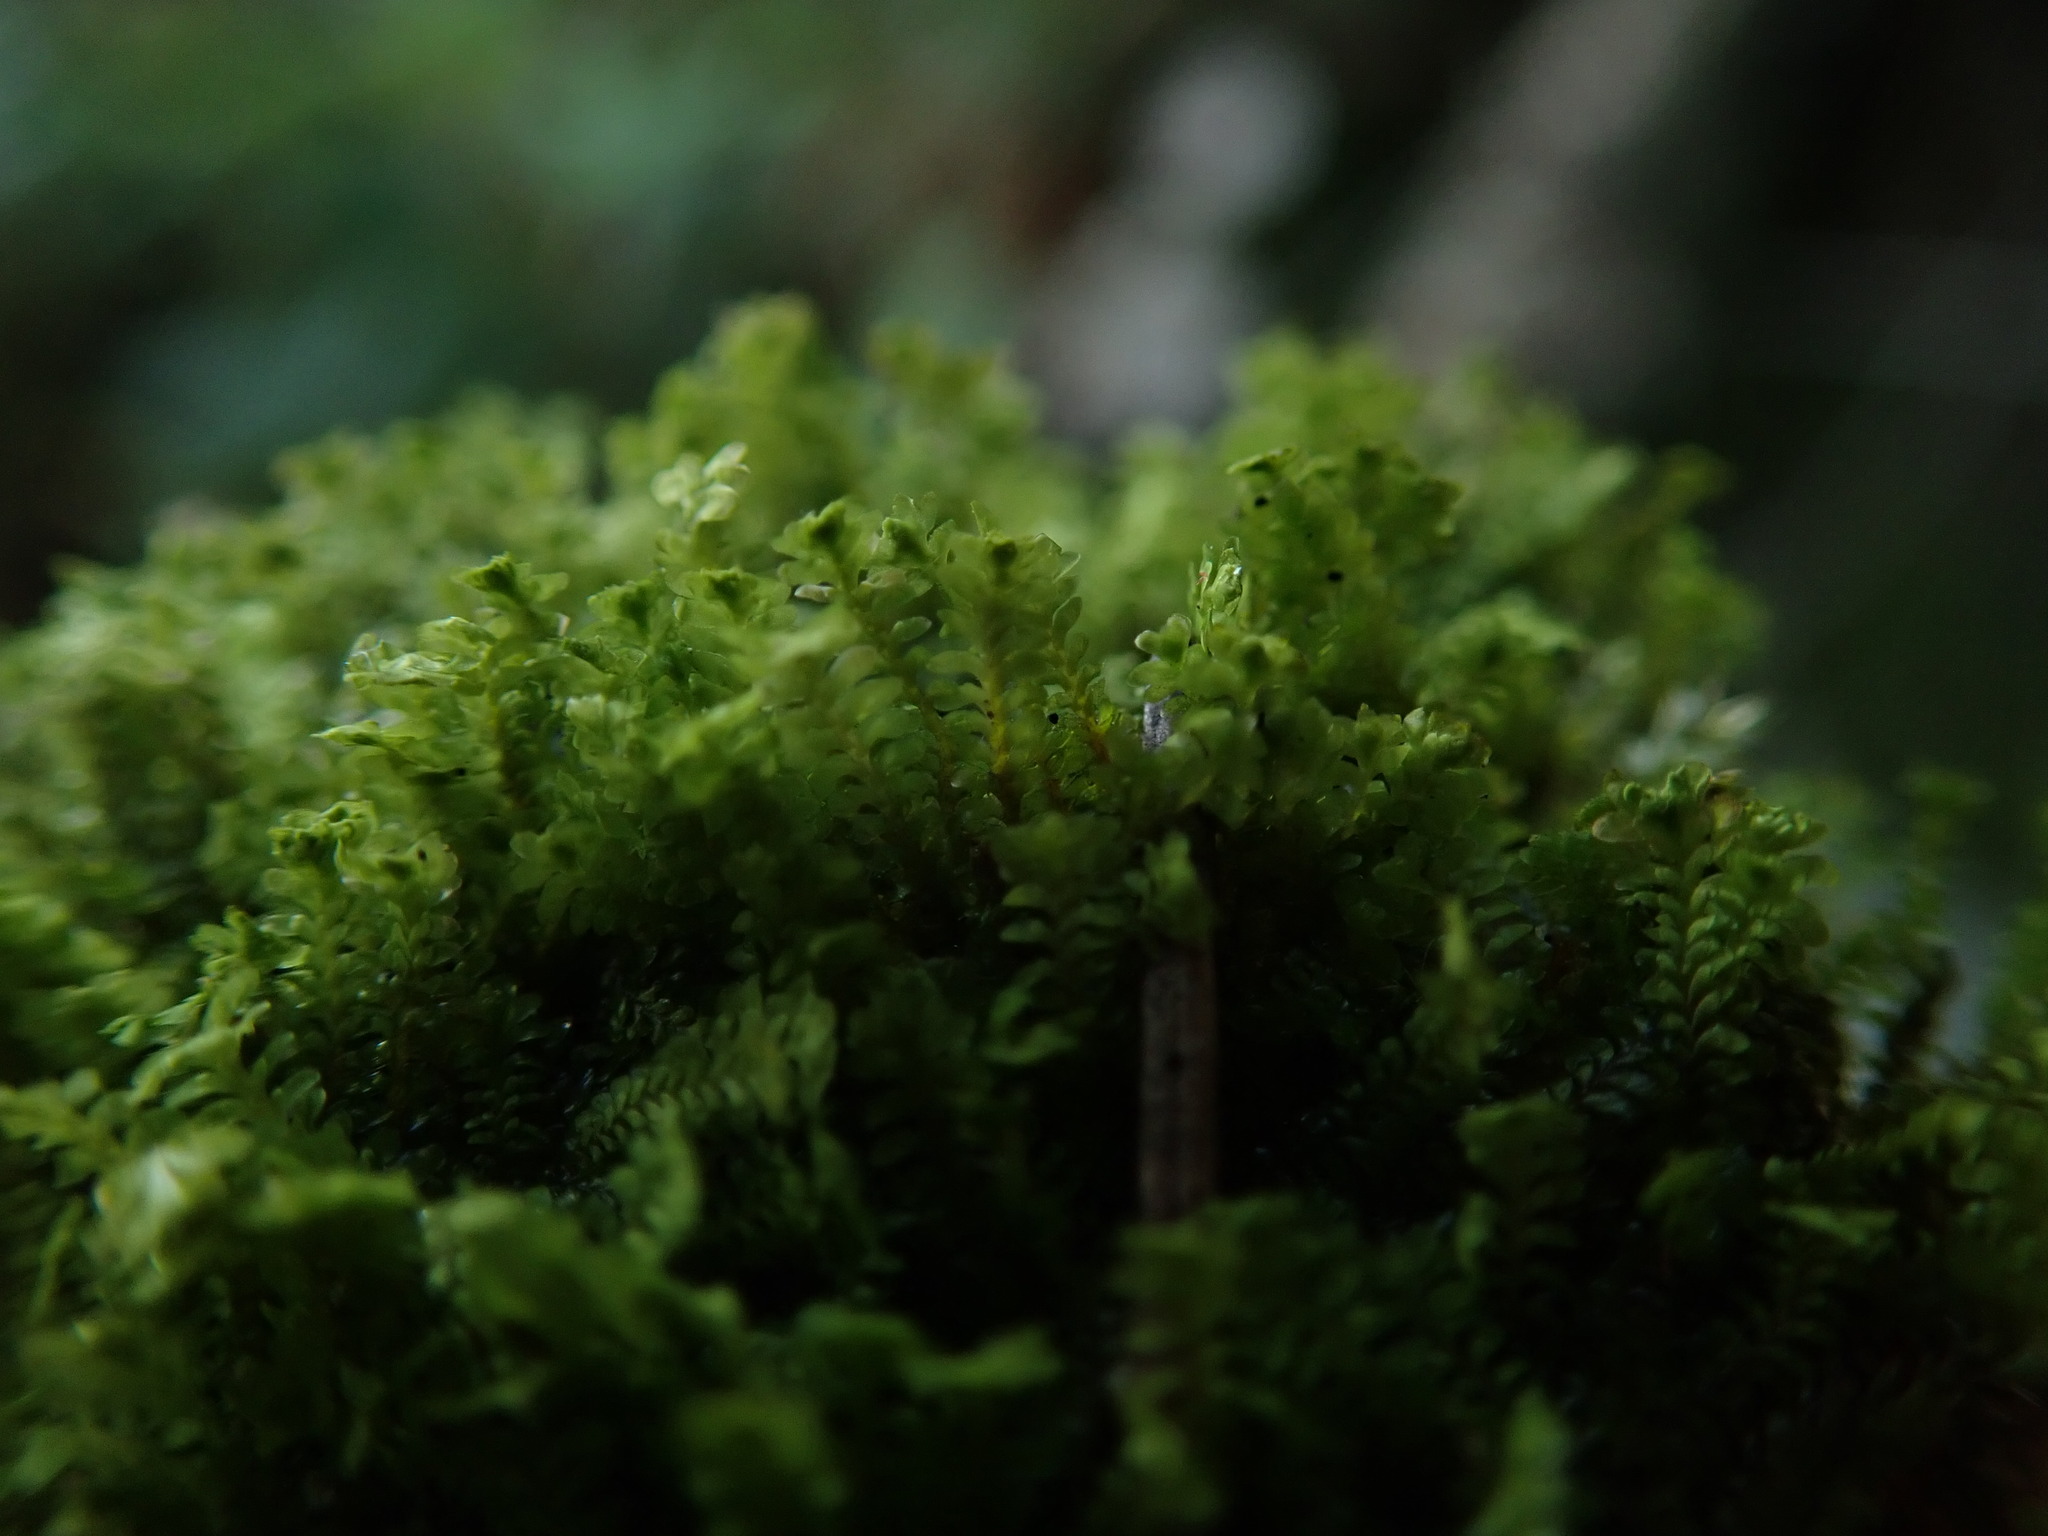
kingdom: Plantae
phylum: Marchantiophyta
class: Jungermanniopsida
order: Jungermanniales
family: Scapaniaceae
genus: Diplophyllum
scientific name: Diplophyllum taxifolium
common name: Alpine earwort
